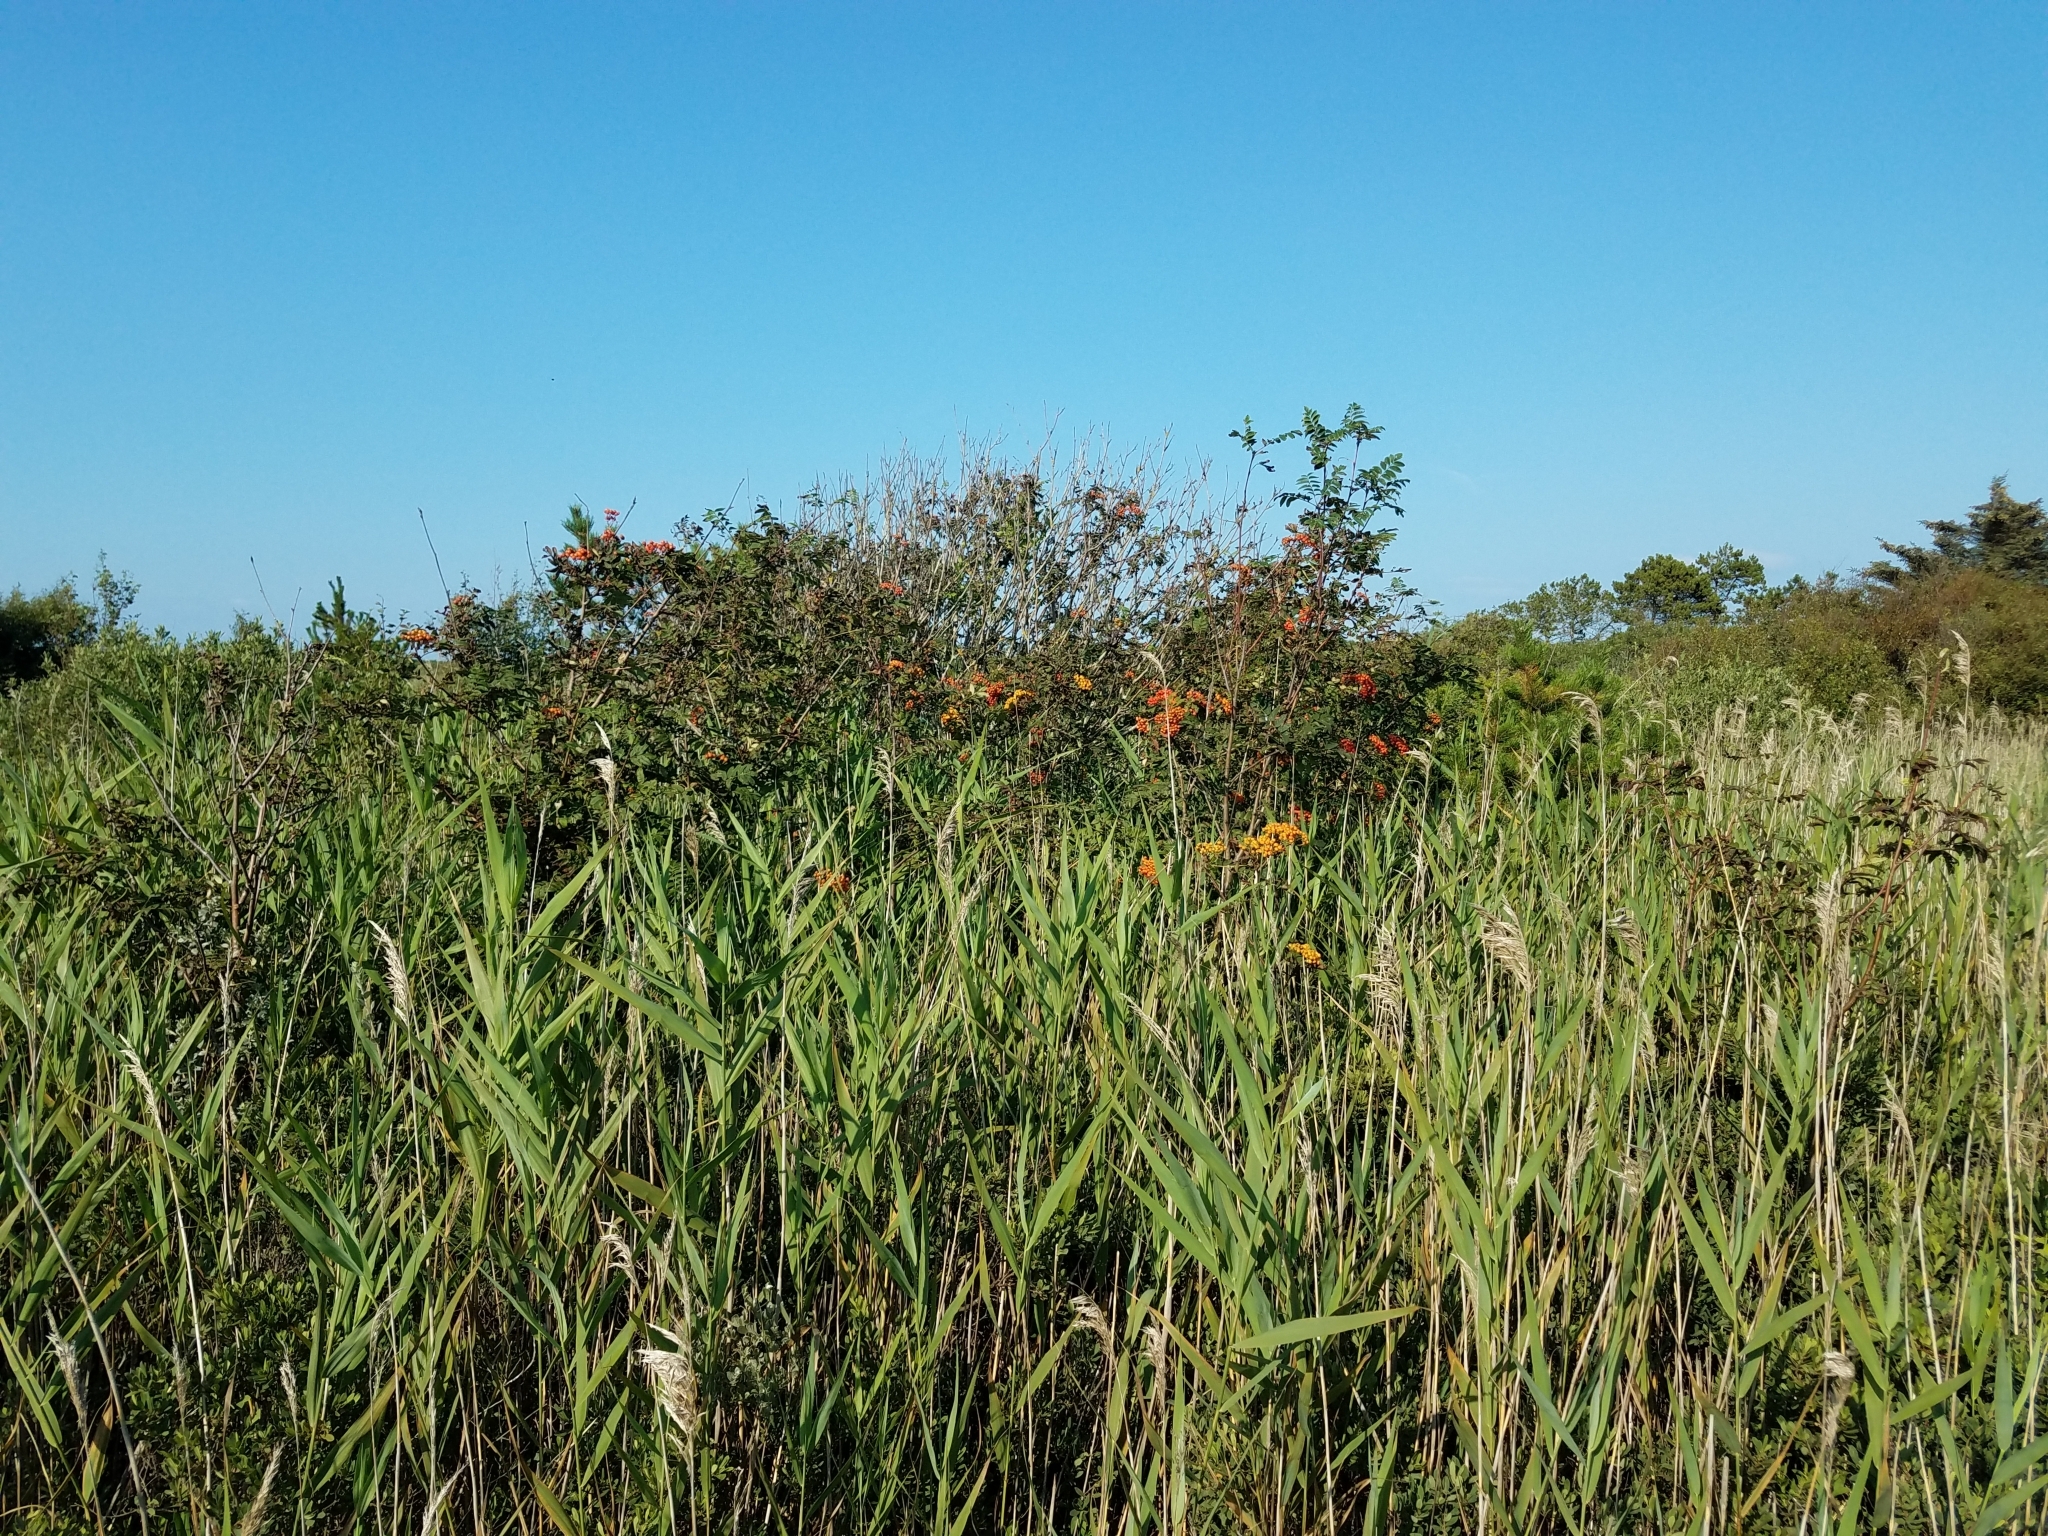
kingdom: Plantae
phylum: Tracheophyta
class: Magnoliopsida
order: Rosales
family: Rosaceae
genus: Sorbus
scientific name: Sorbus aucuparia
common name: Rowan
